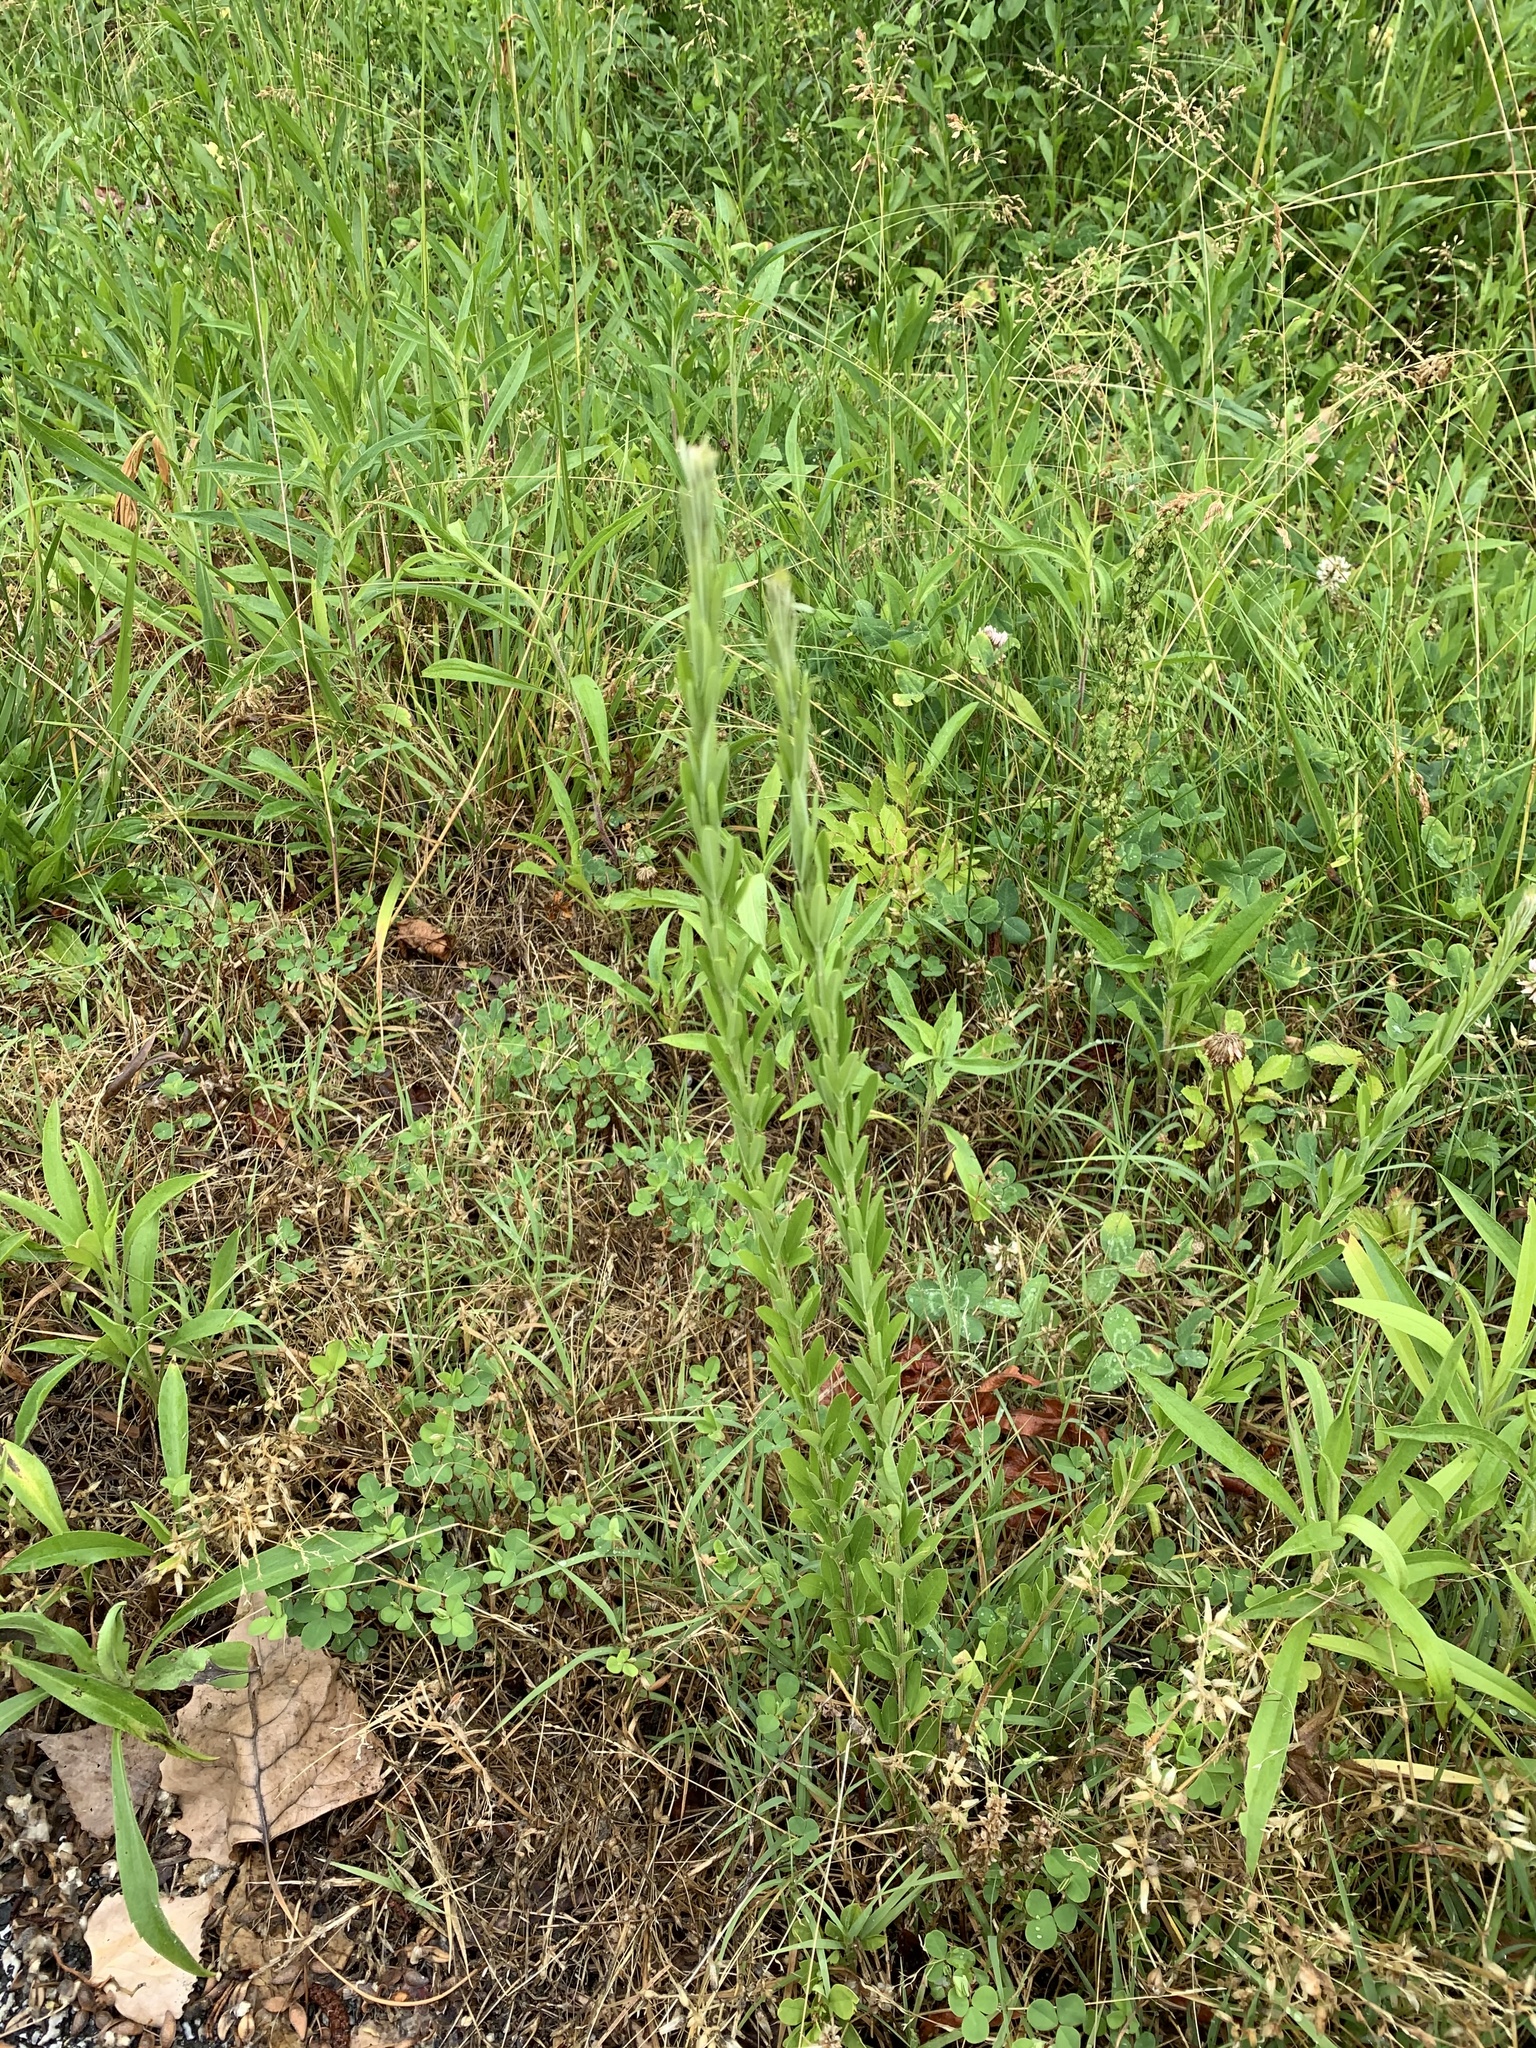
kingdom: Plantae
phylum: Tracheophyta
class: Magnoliopsida
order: Fabales
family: Fabaceae
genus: Lespedeza
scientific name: Lespedeza cuneata
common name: Chinese bush-clover
